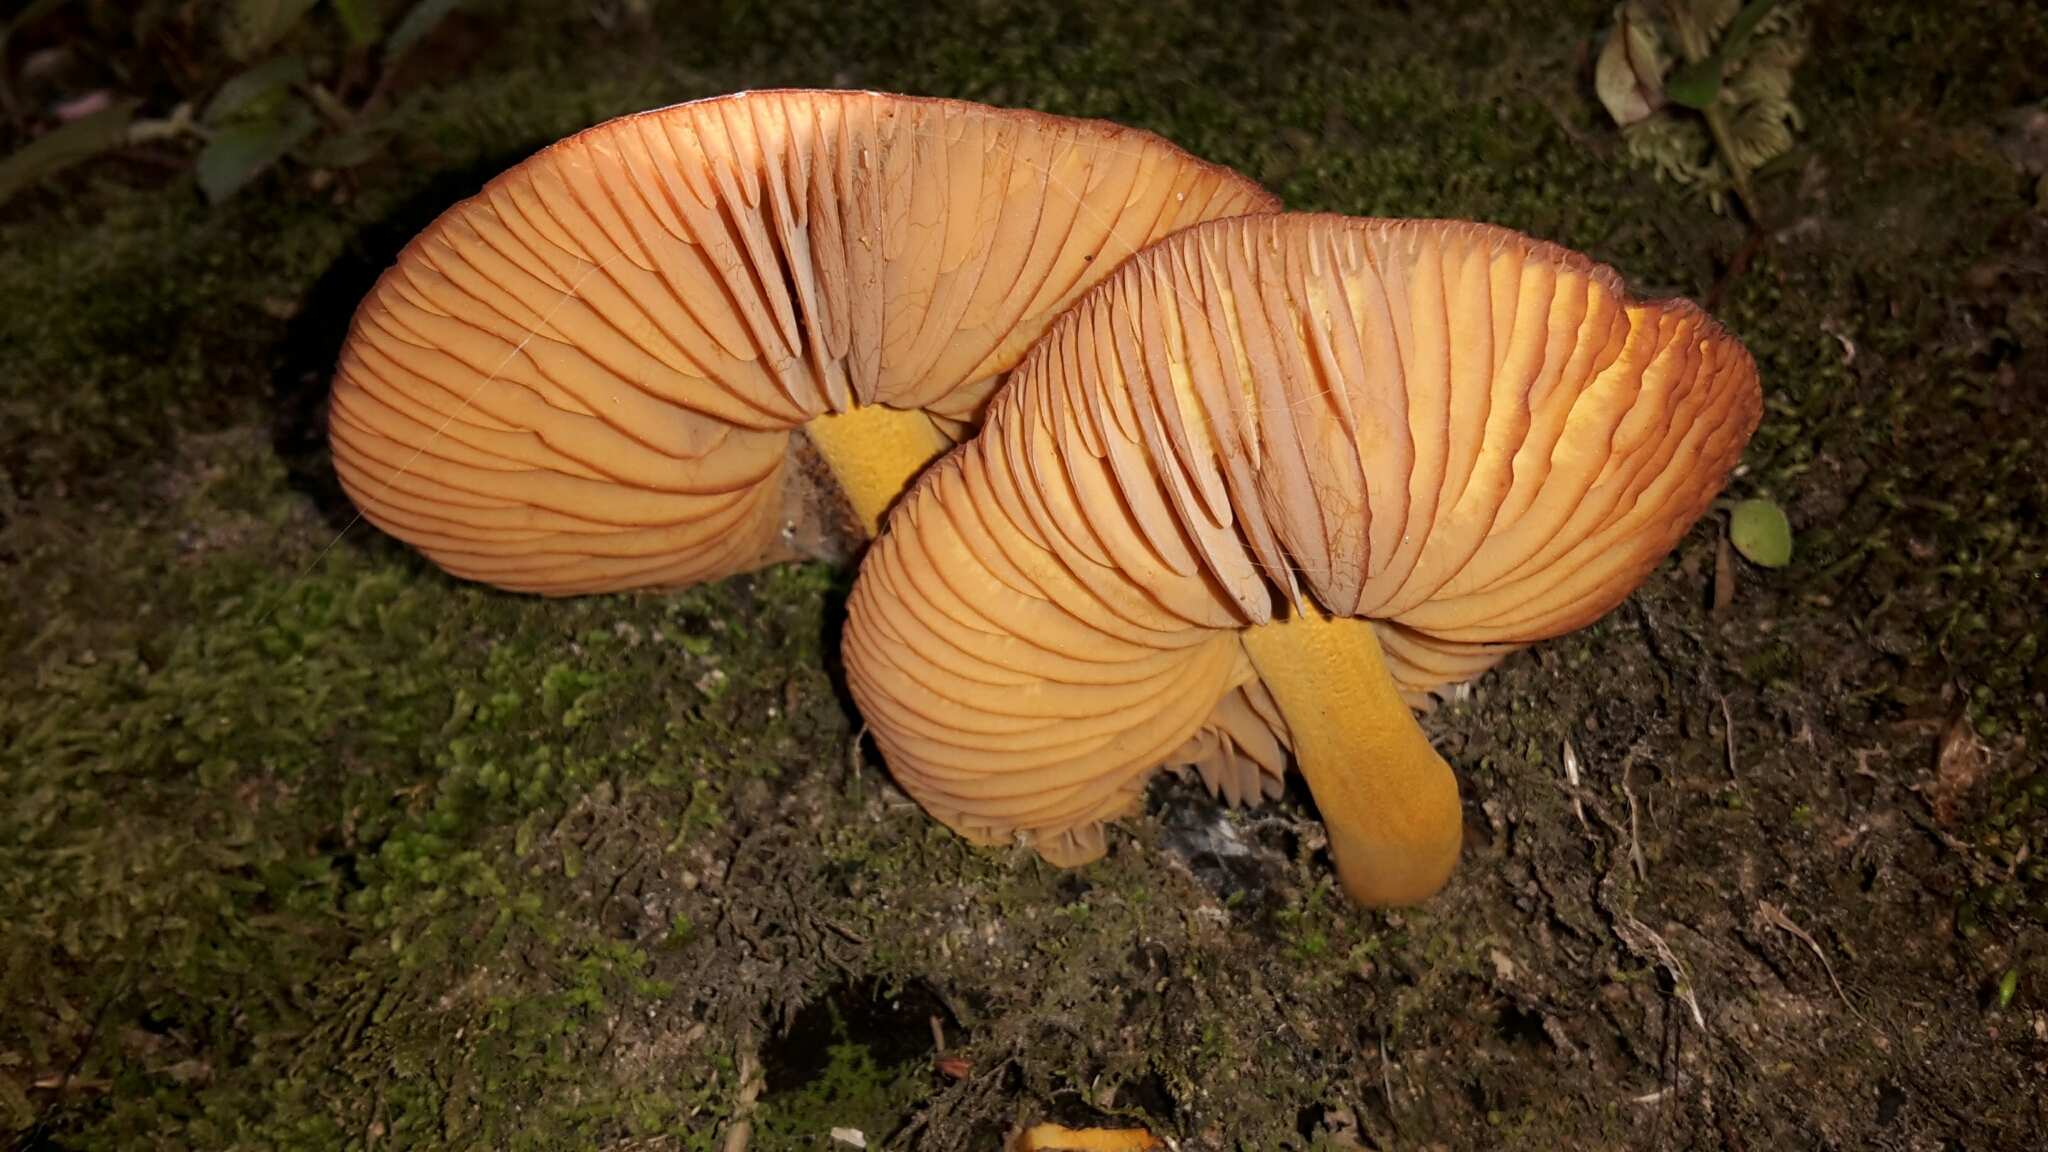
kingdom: Fungi
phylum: Basidiomycota
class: Agaricomycetes
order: Agaricales
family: Mycenaceae
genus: Heimiomyces
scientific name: Heimiomyces velutipes
